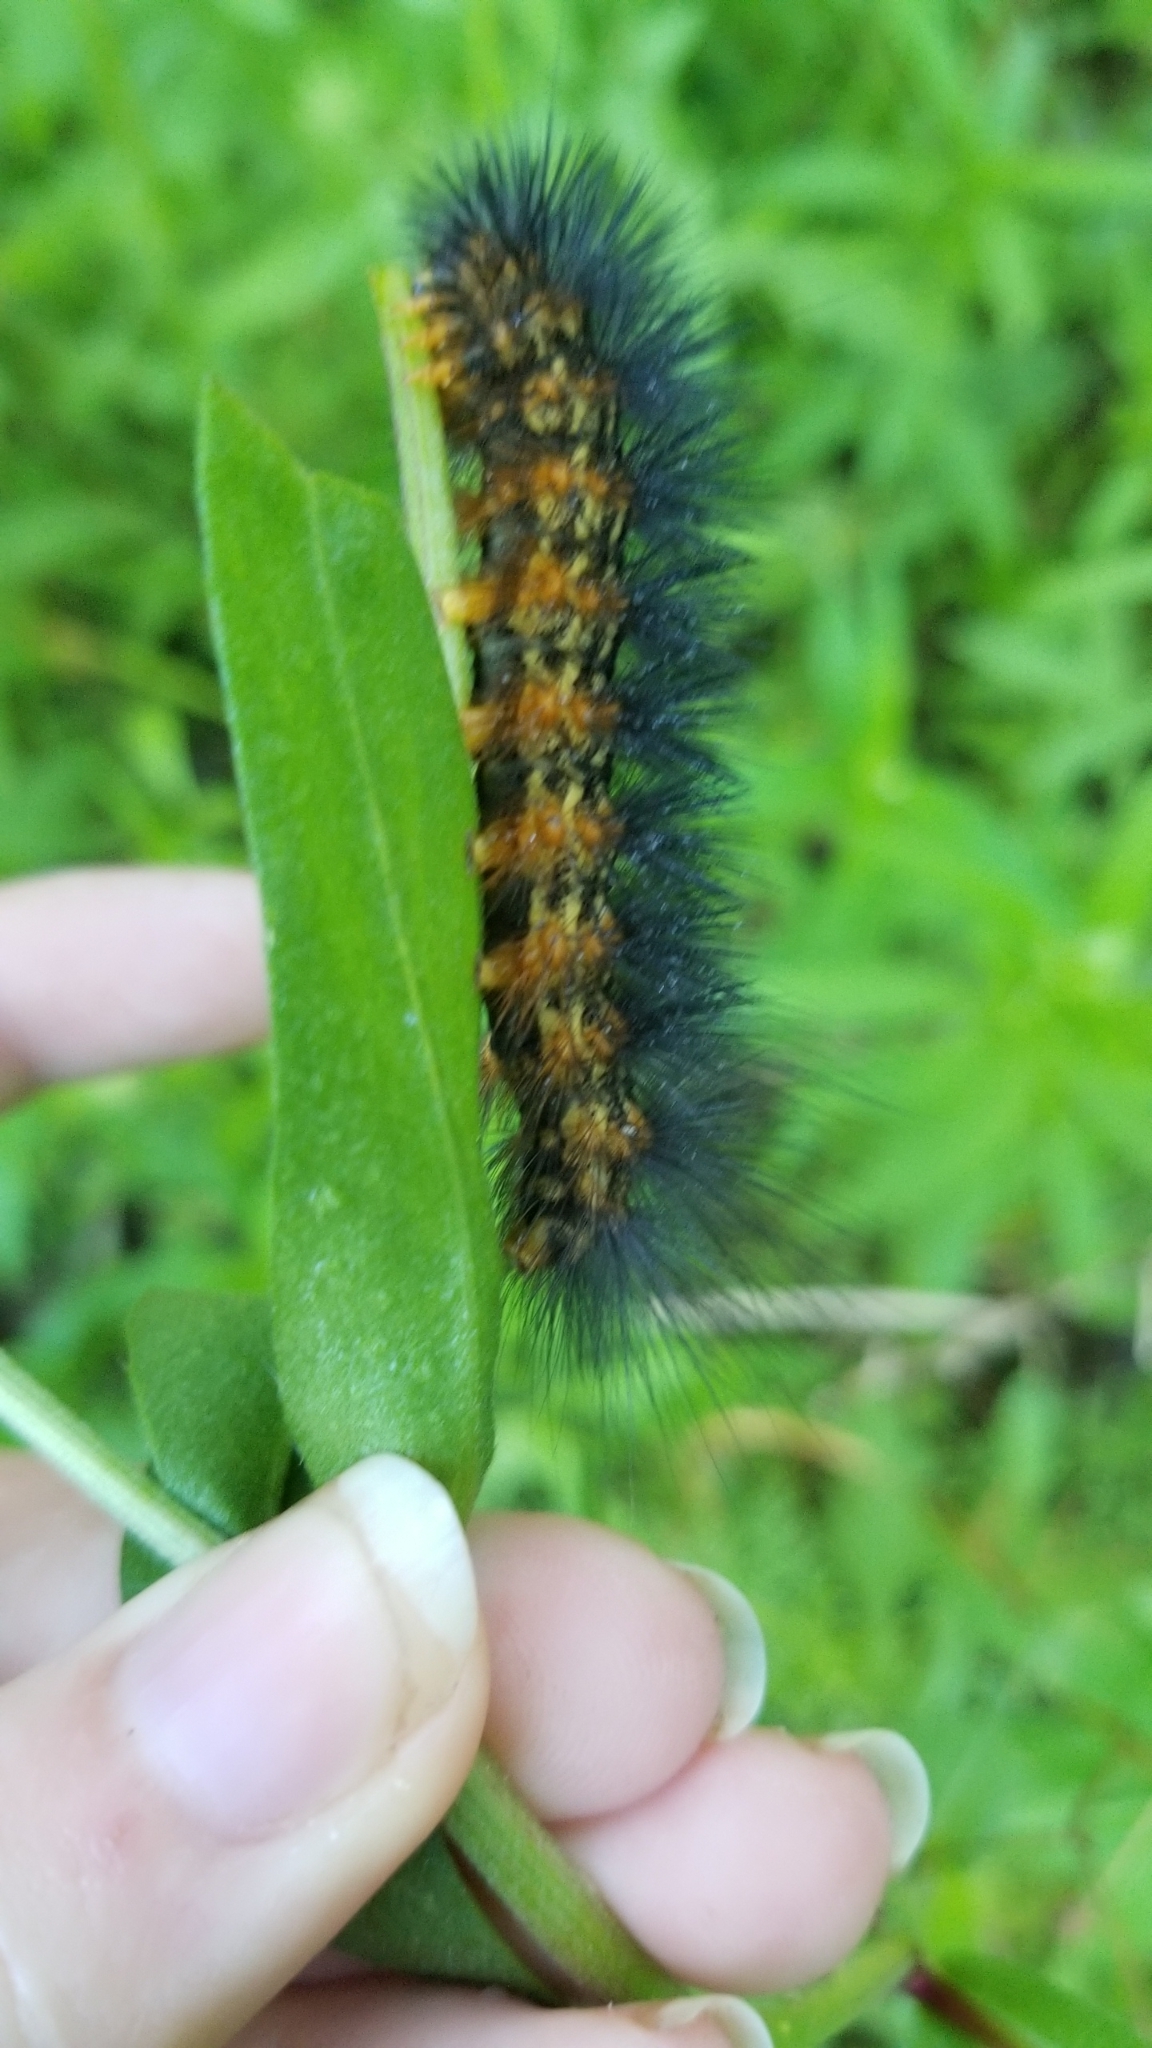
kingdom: Animalia
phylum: Arthropoda
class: Insecta
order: Lepidoptera
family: Erebidae
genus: Estigmene
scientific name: Estigmene acrea
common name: Salt marsh moth
